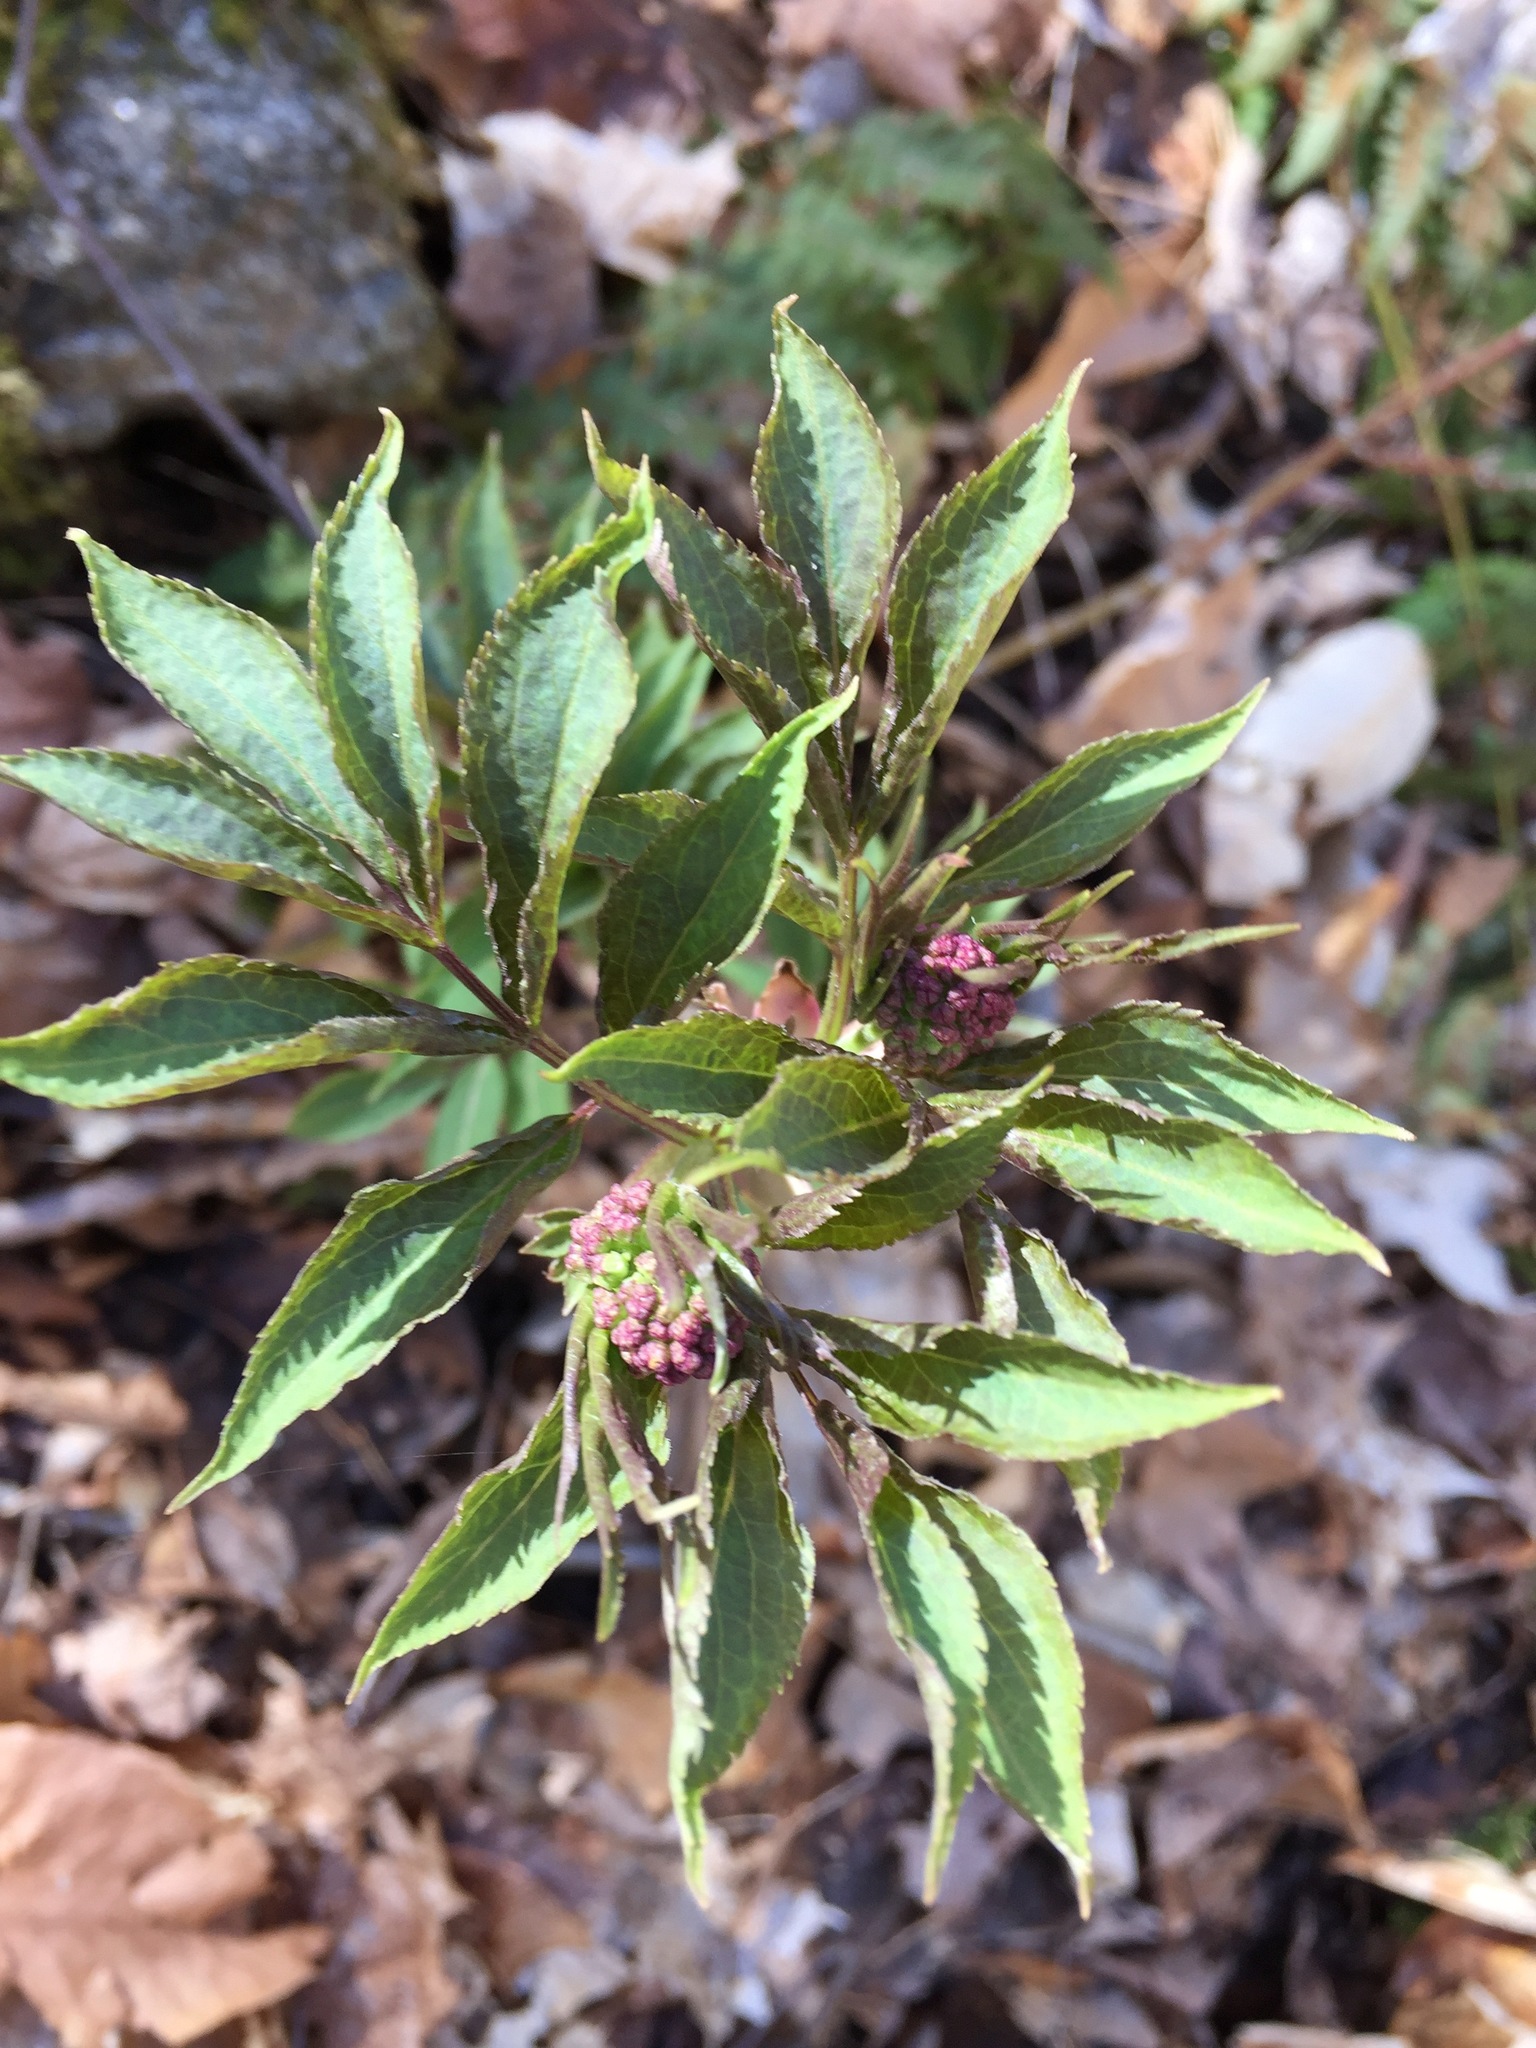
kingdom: Plantae
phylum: Tracheophyta
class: Magnoliopsida
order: Dipsacales
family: Viburnaceae
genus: Sambucus
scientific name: Sambucus racemosa
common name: Red-berried elder
